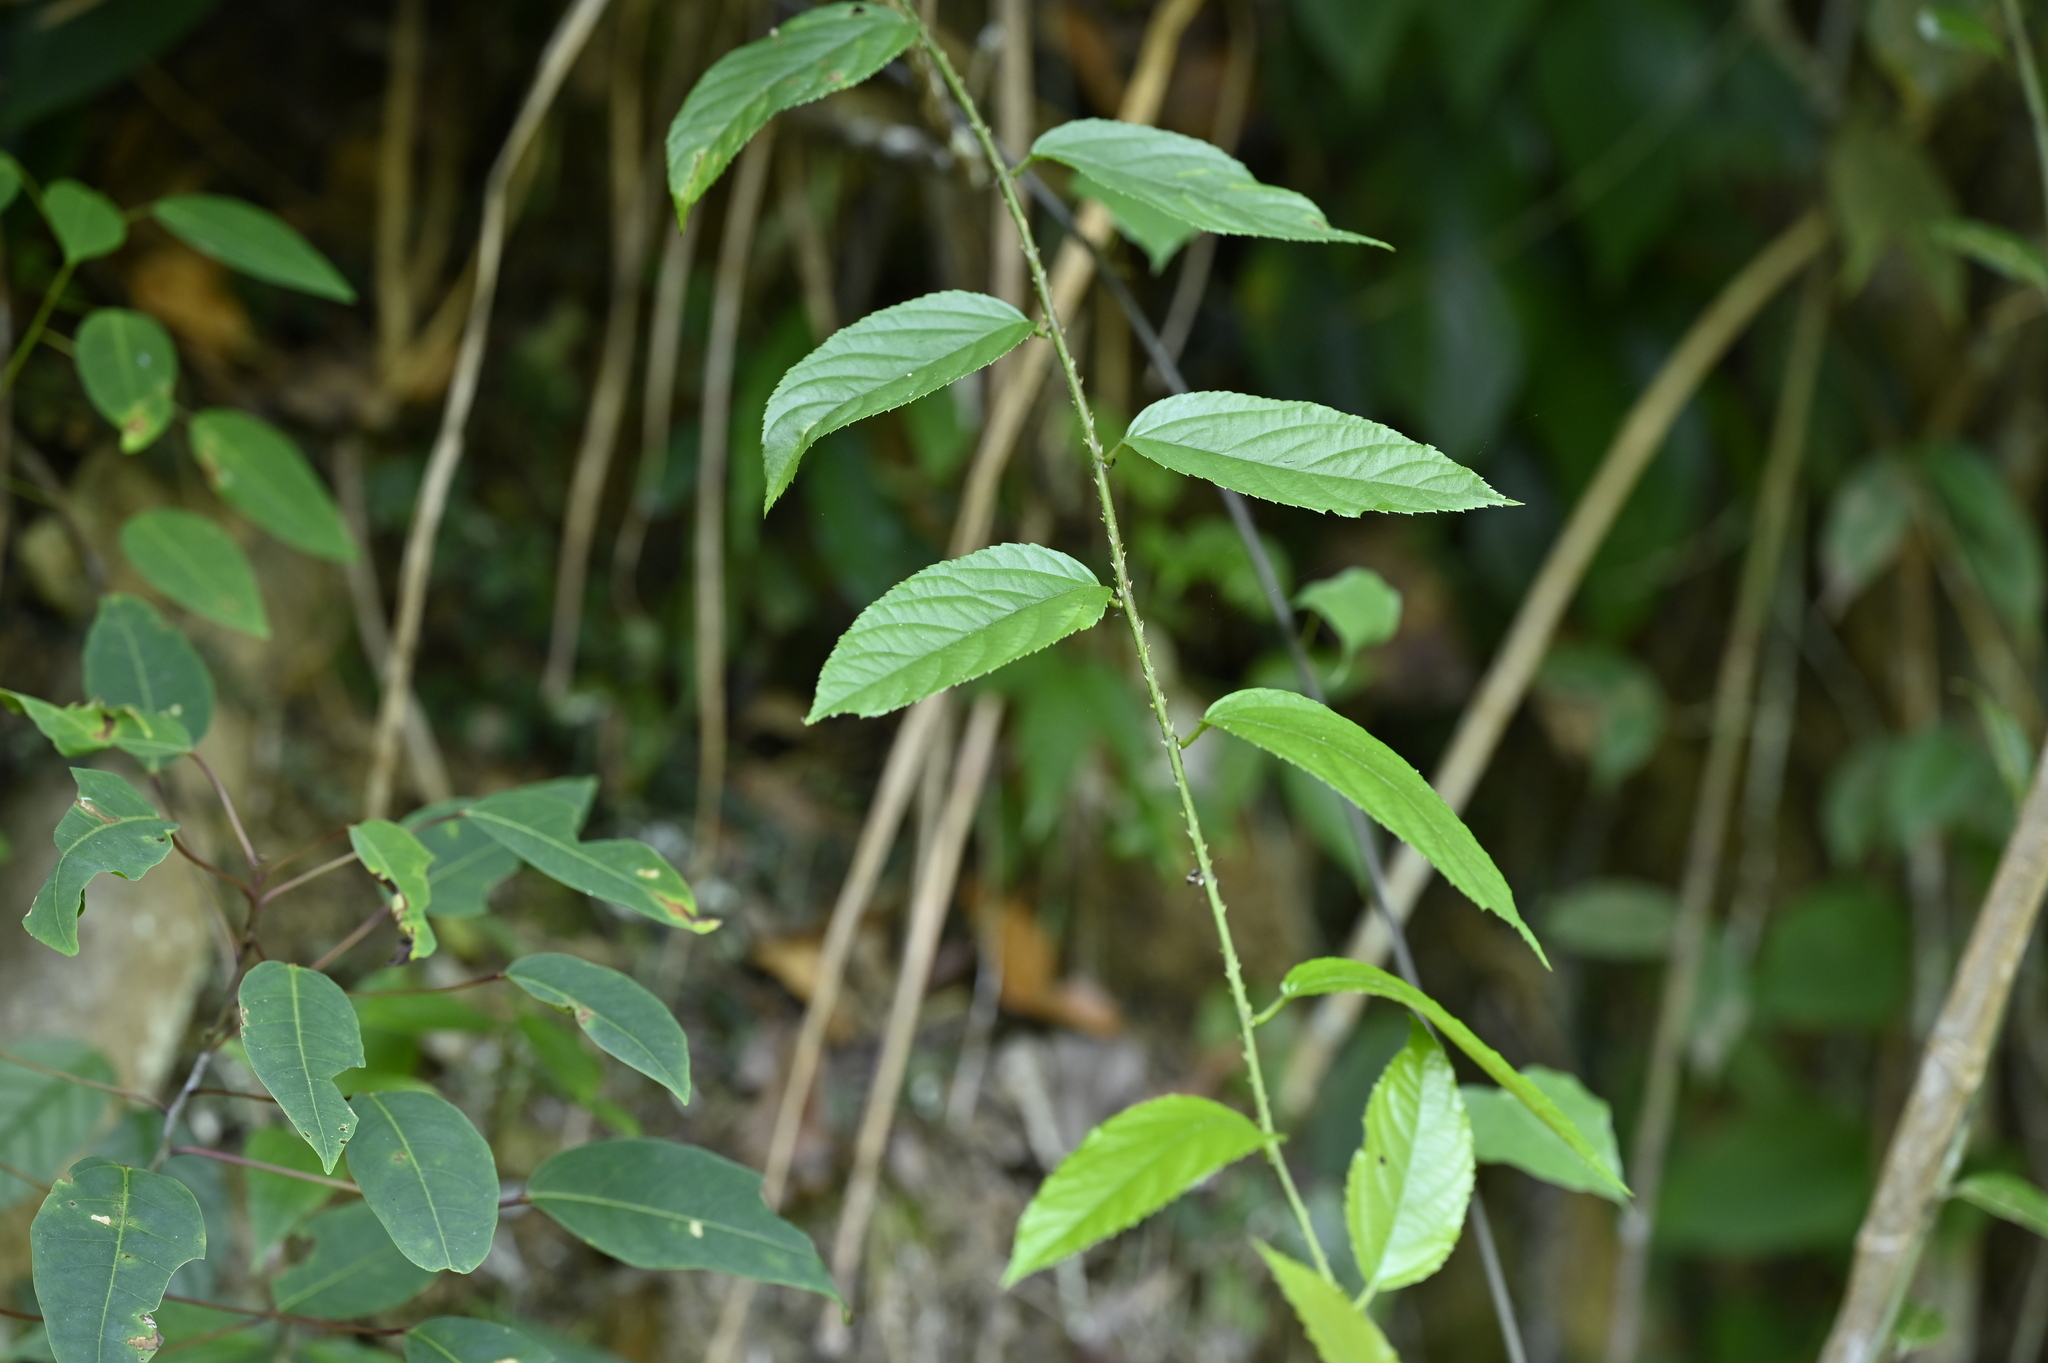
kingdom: Plantae
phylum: Tracheophyta
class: Magnoliopsida
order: Rosales
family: Rosaceae
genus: Rubus
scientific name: Rubus
